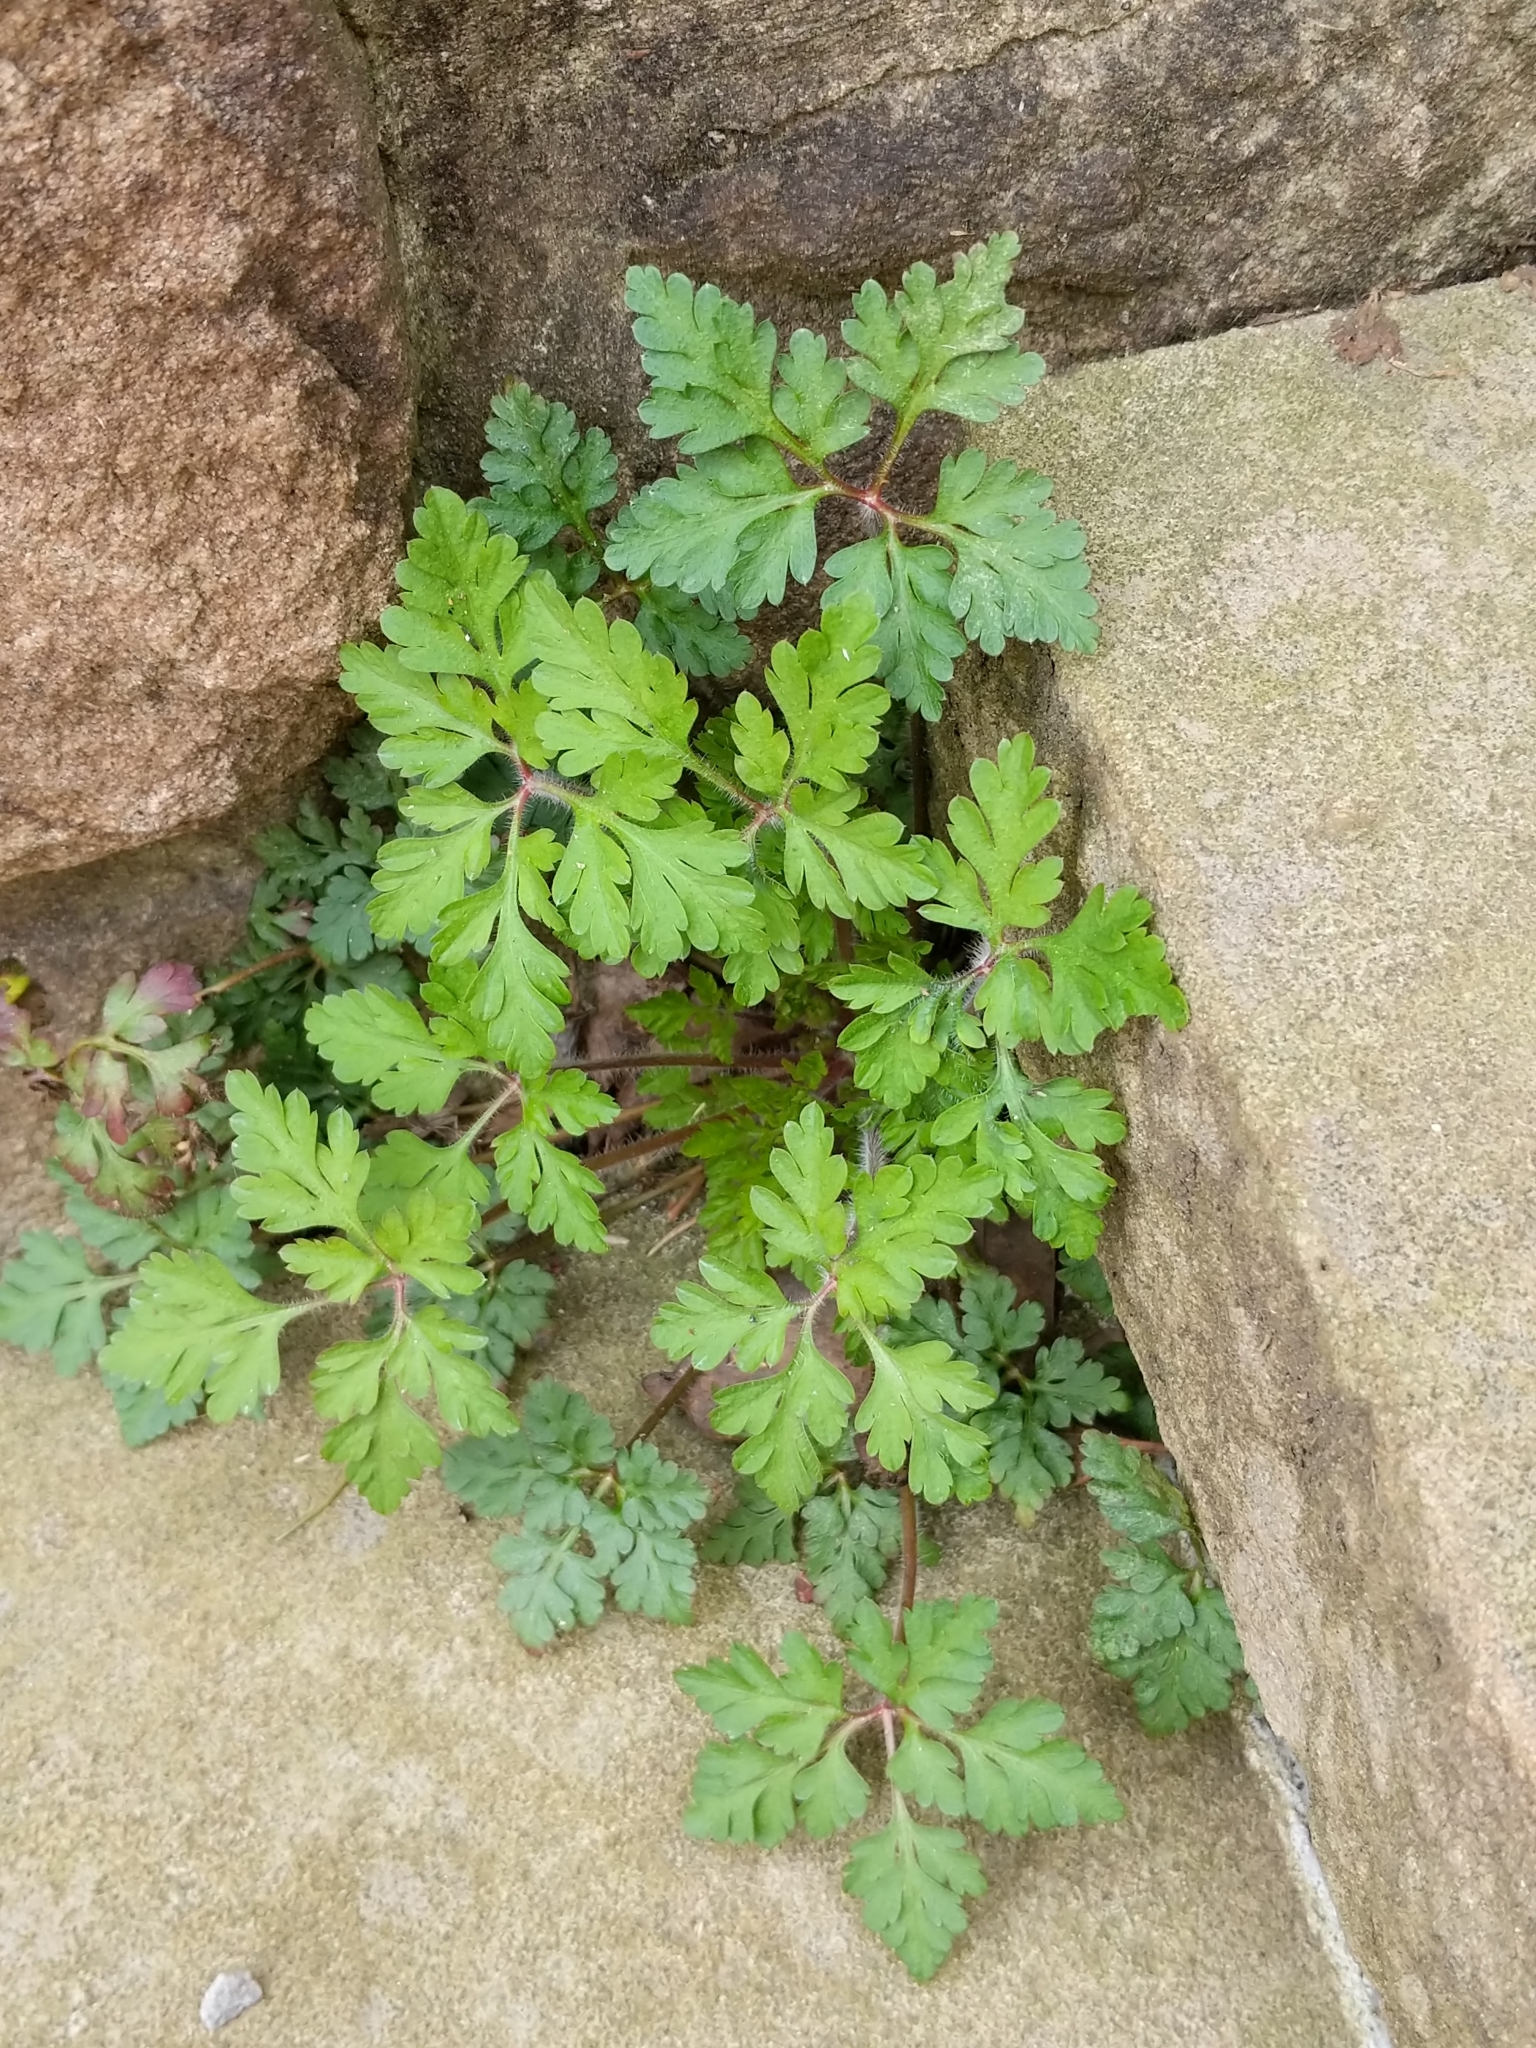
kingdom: Plantae
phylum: Tracheophyta
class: Magnoliopsida
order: Geraniales
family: Geraniaceae
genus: Geranium
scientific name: Geranium robertianum
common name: Herb-robert
